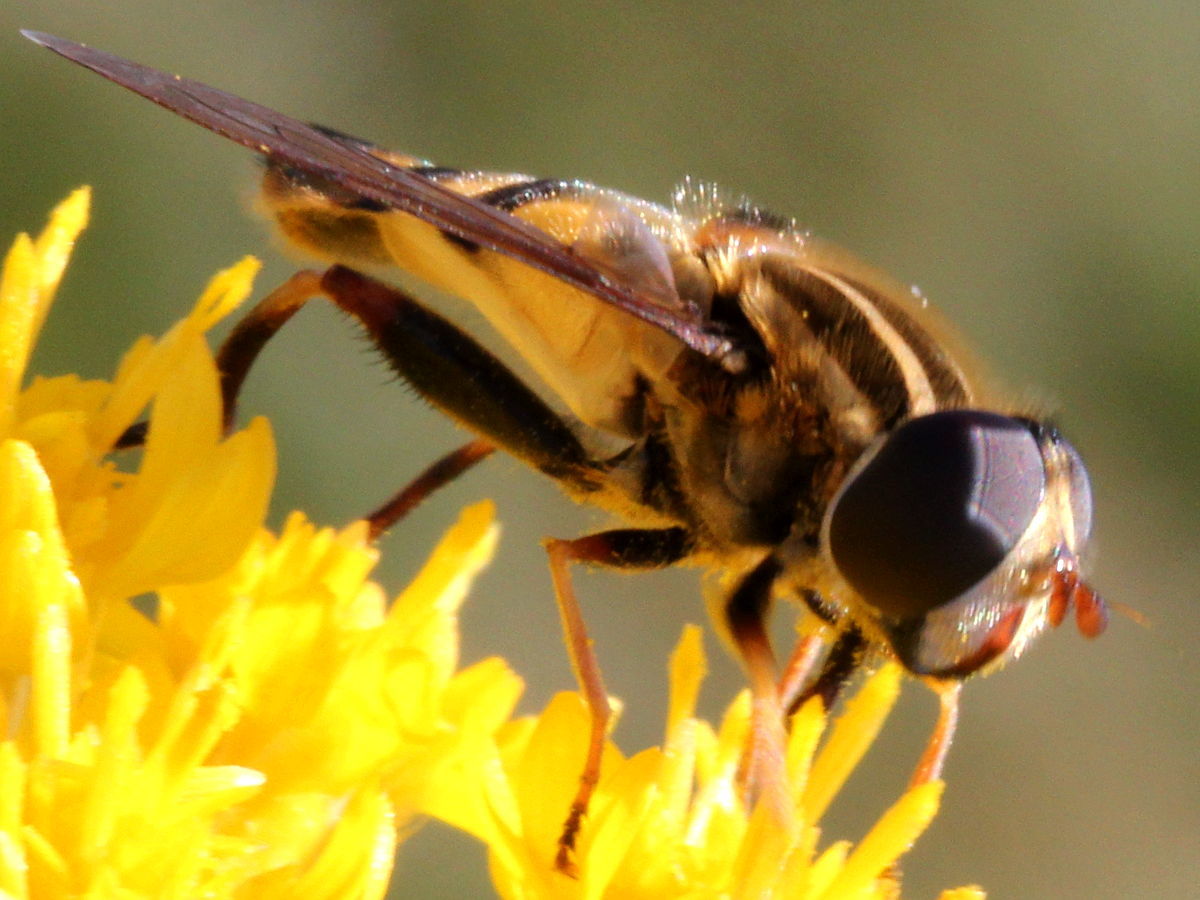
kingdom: Animalia
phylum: Arthropoda
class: Insecta
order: Diptera
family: Syrphidae
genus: Helophilus
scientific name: Helophilus fasciatus
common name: Narrow-headed marsh fly
